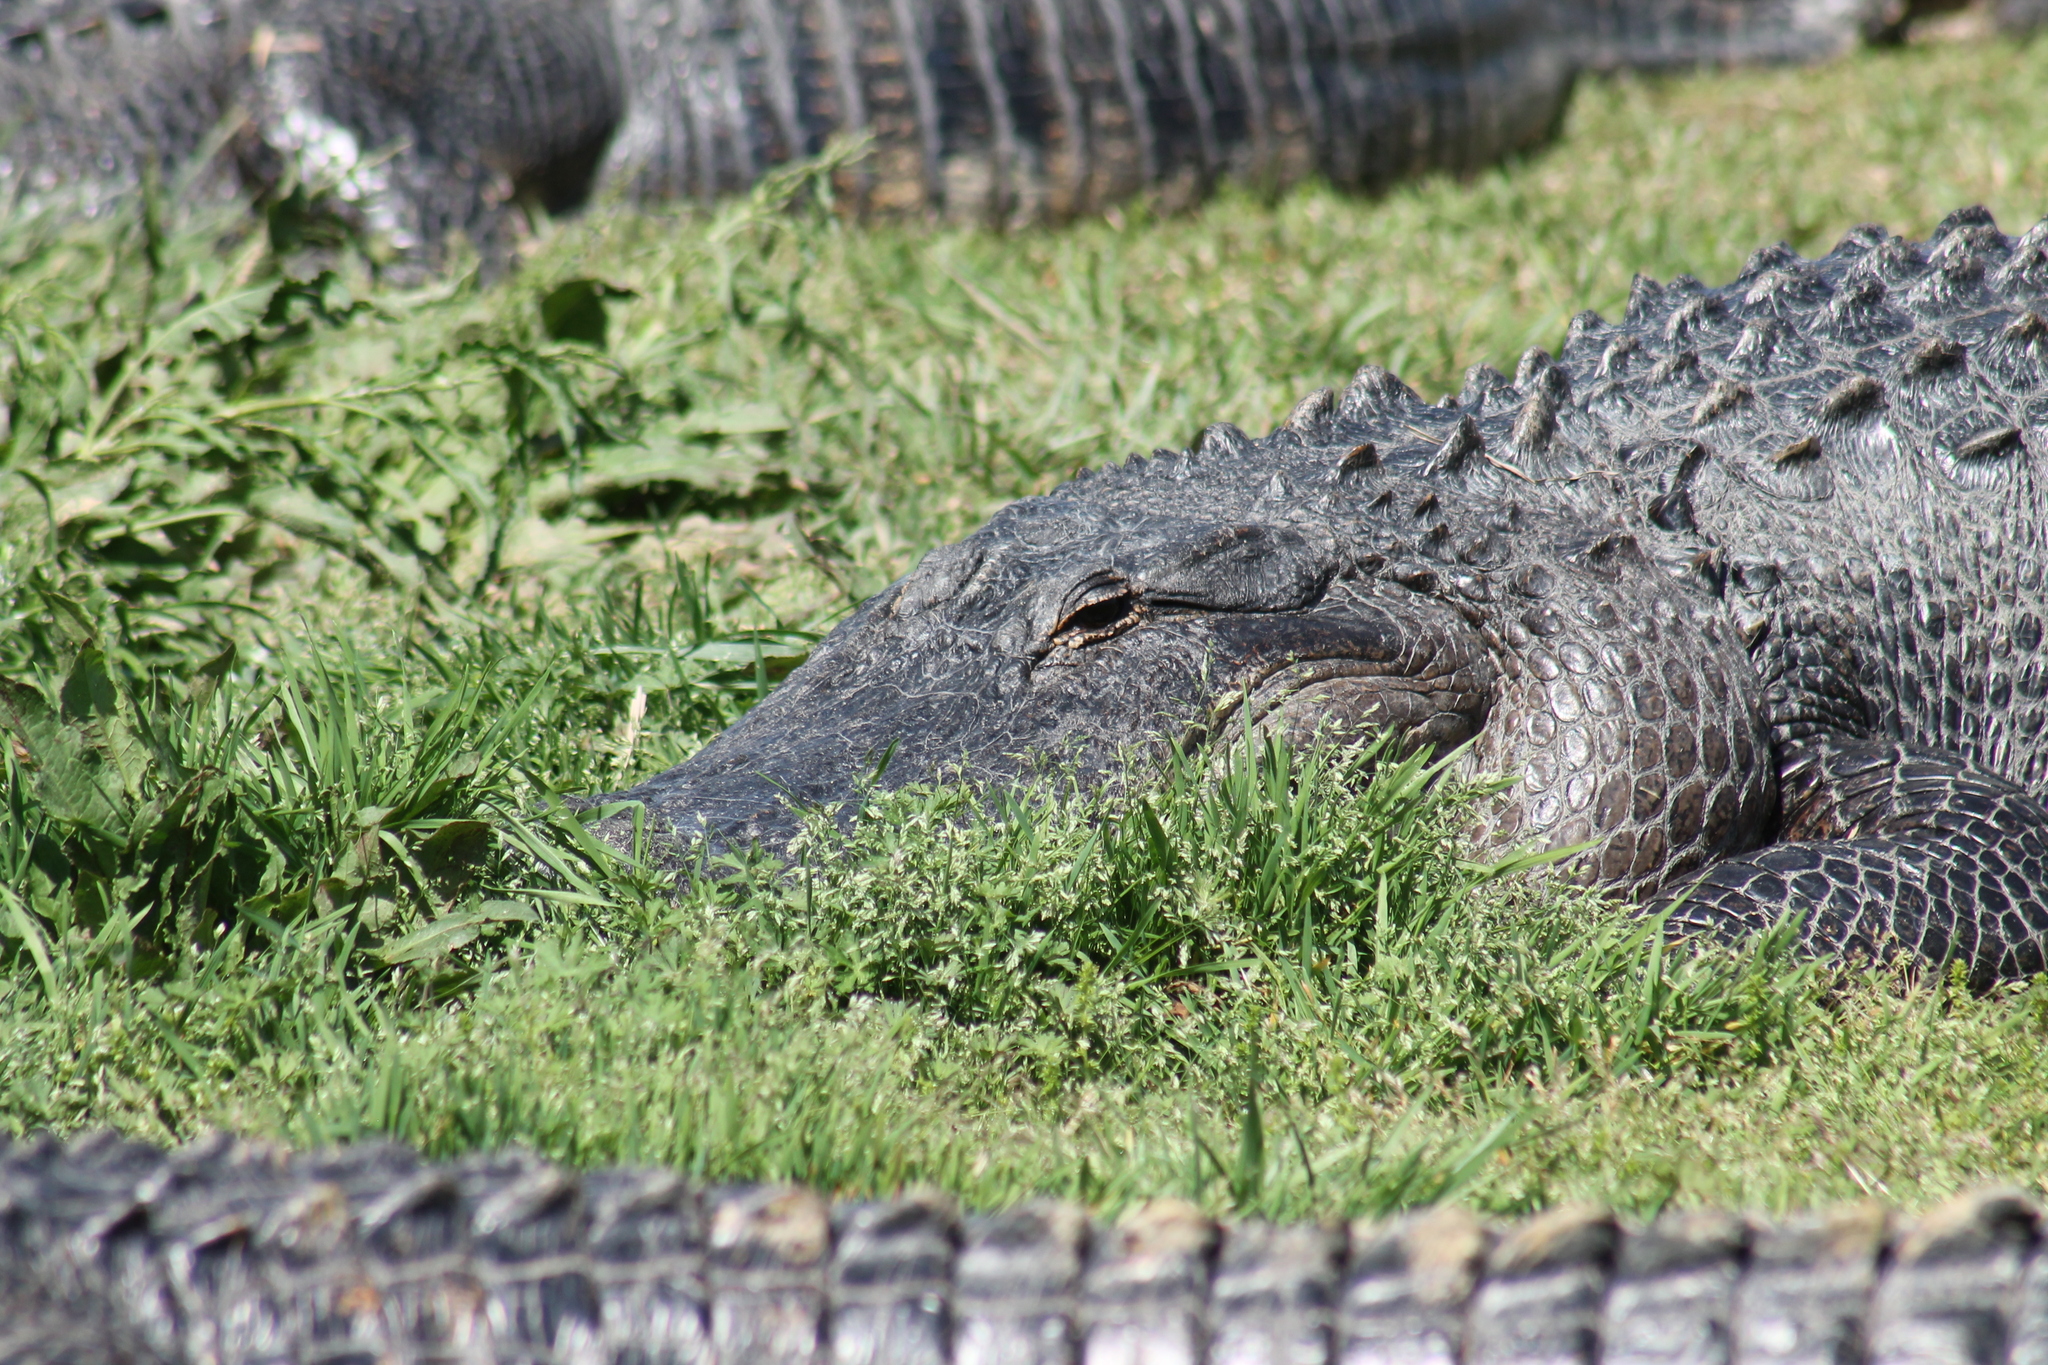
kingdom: Animalia
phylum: Chordata
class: Crocodylia
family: Alligatoridae
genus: Alligator
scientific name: Alligator mississippiensis
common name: American alligator
